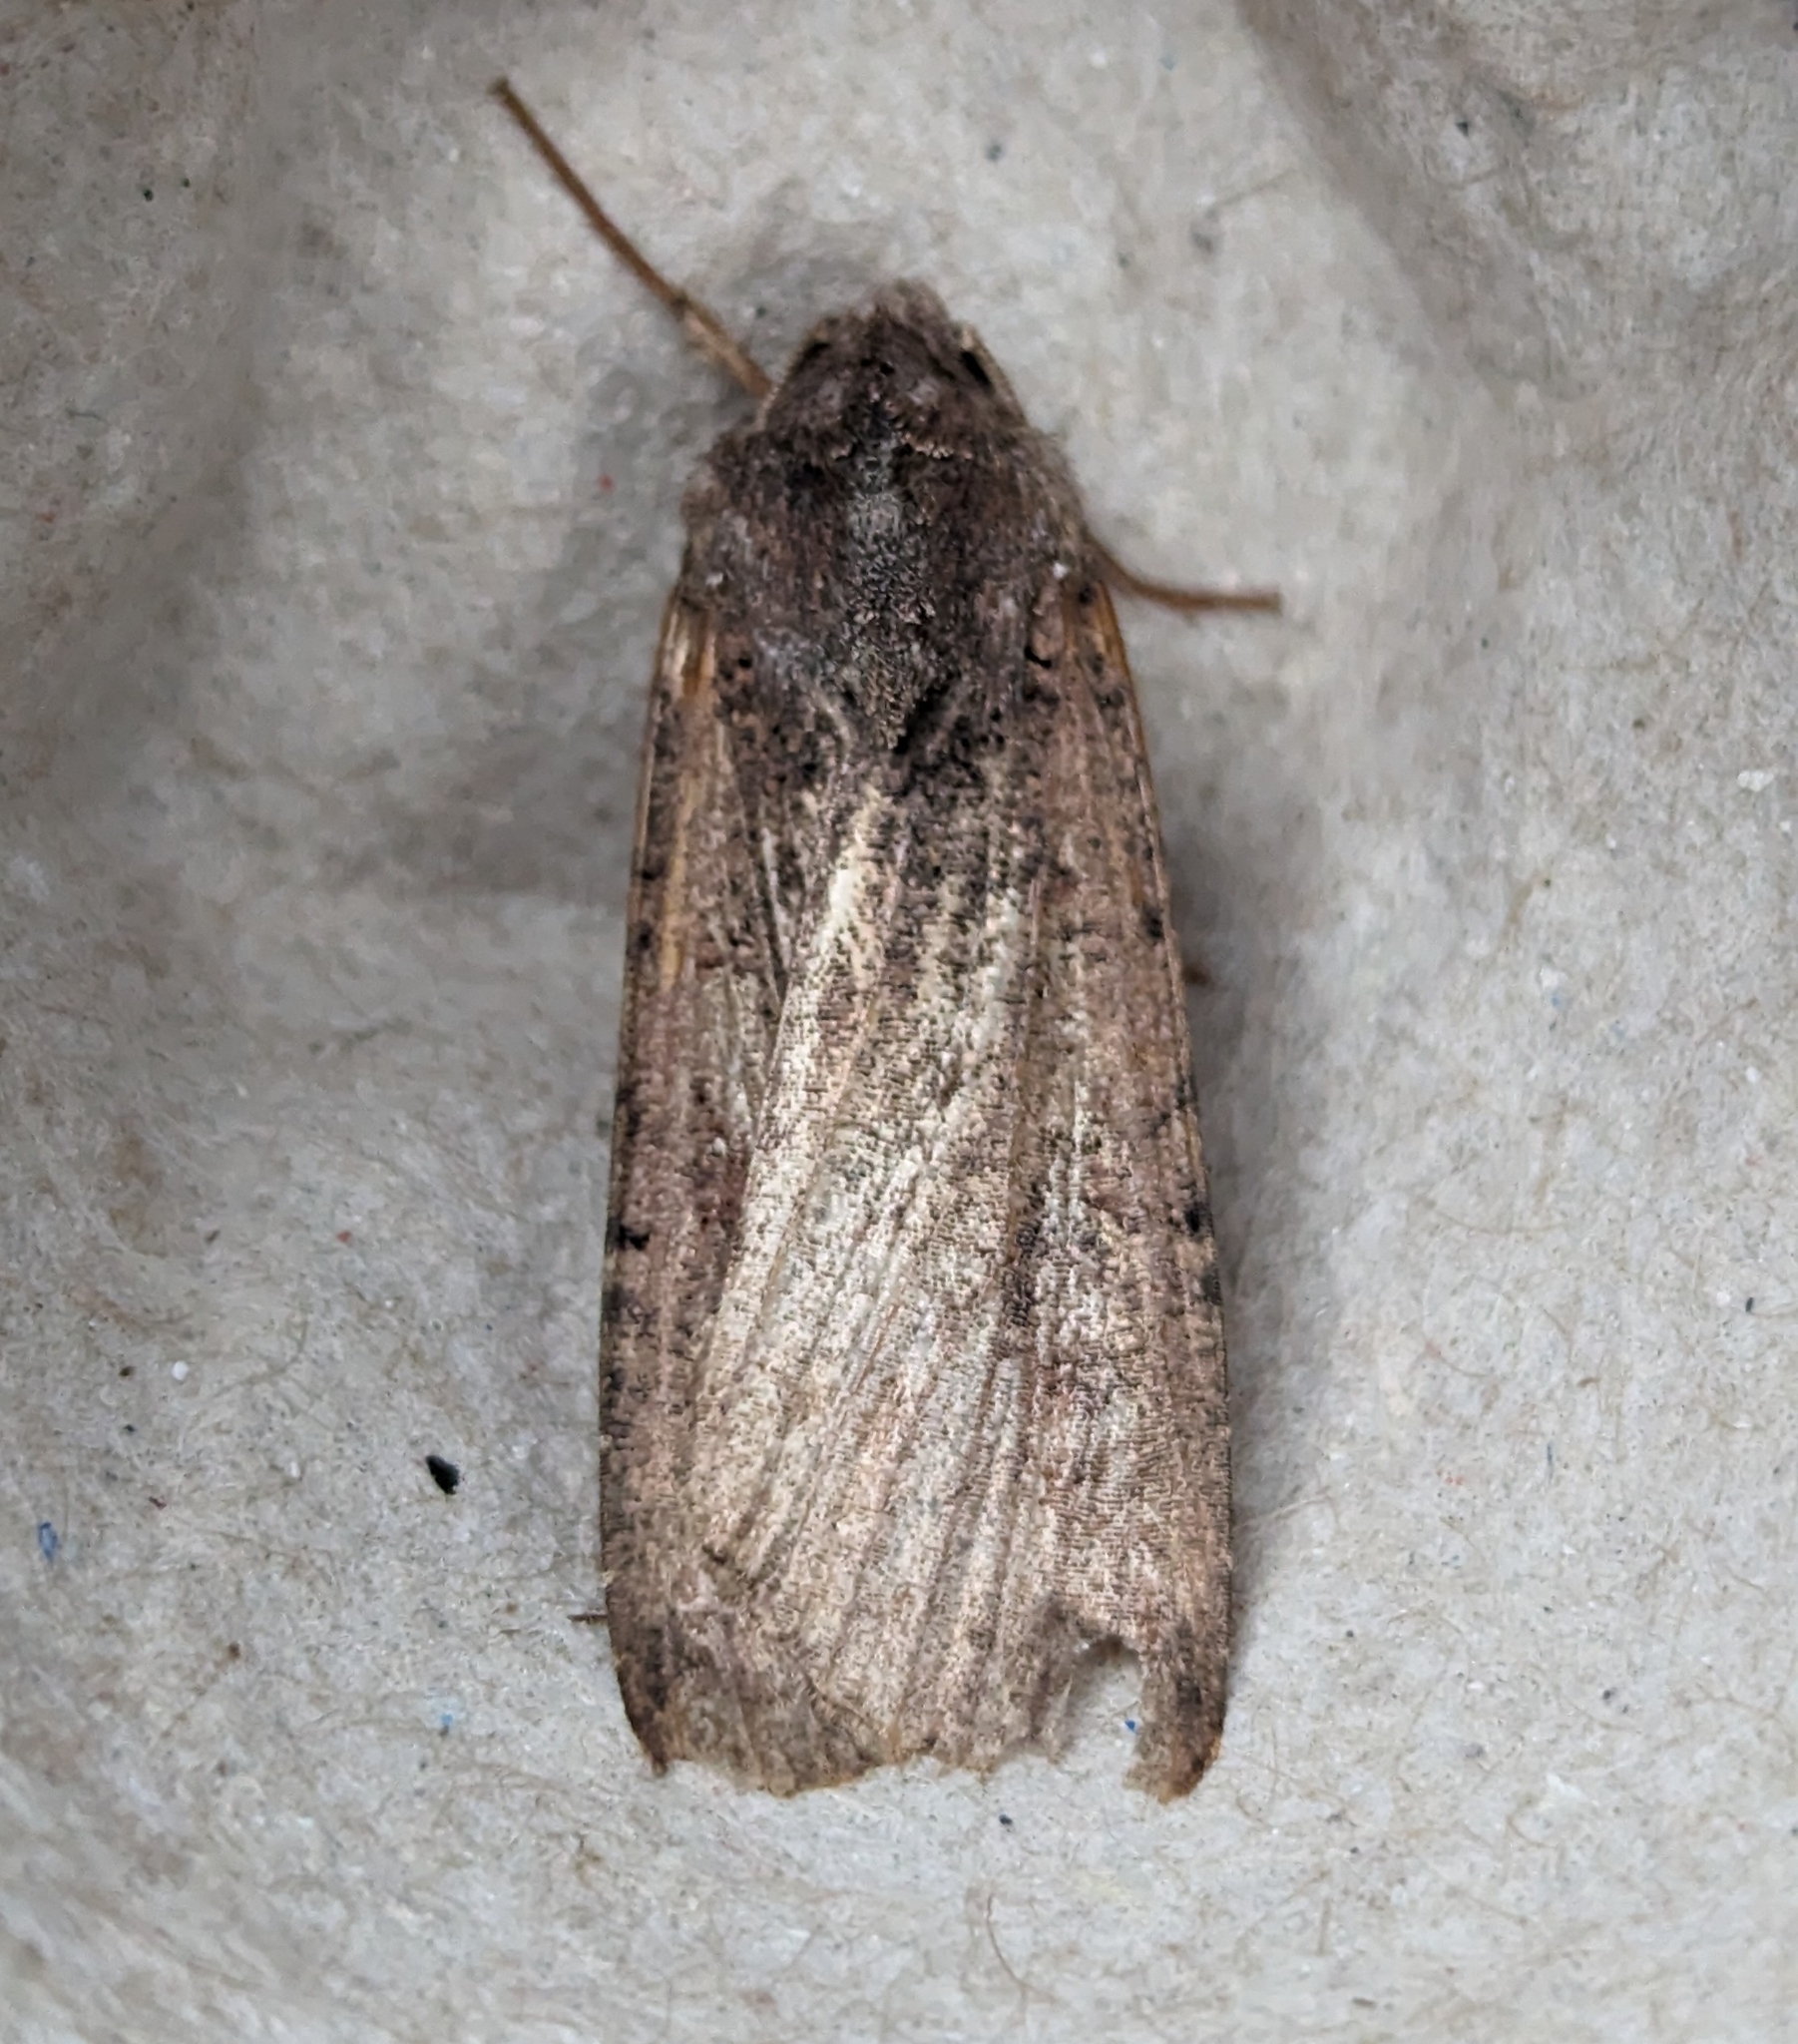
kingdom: Animalia
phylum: Arthropoda
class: Insecta
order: Lepidoptera
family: Noctuidae
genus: Peridroma
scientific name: Peridroma saucia
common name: Pearly underwing
